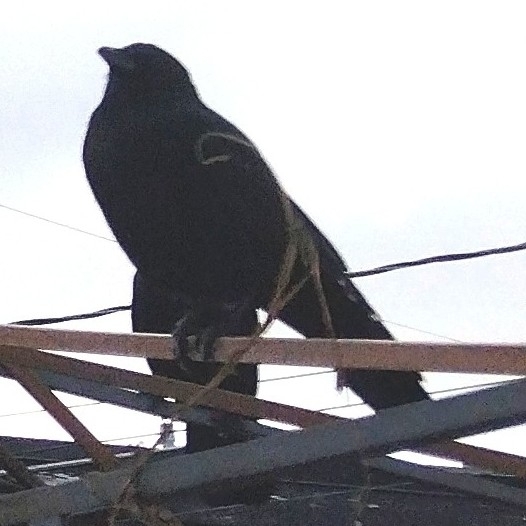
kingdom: Animalia
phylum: Chordata
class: Aves
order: Passeriformes
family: Corvidae
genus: Corvus
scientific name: Corvus brachyrhynchos
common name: American crow
